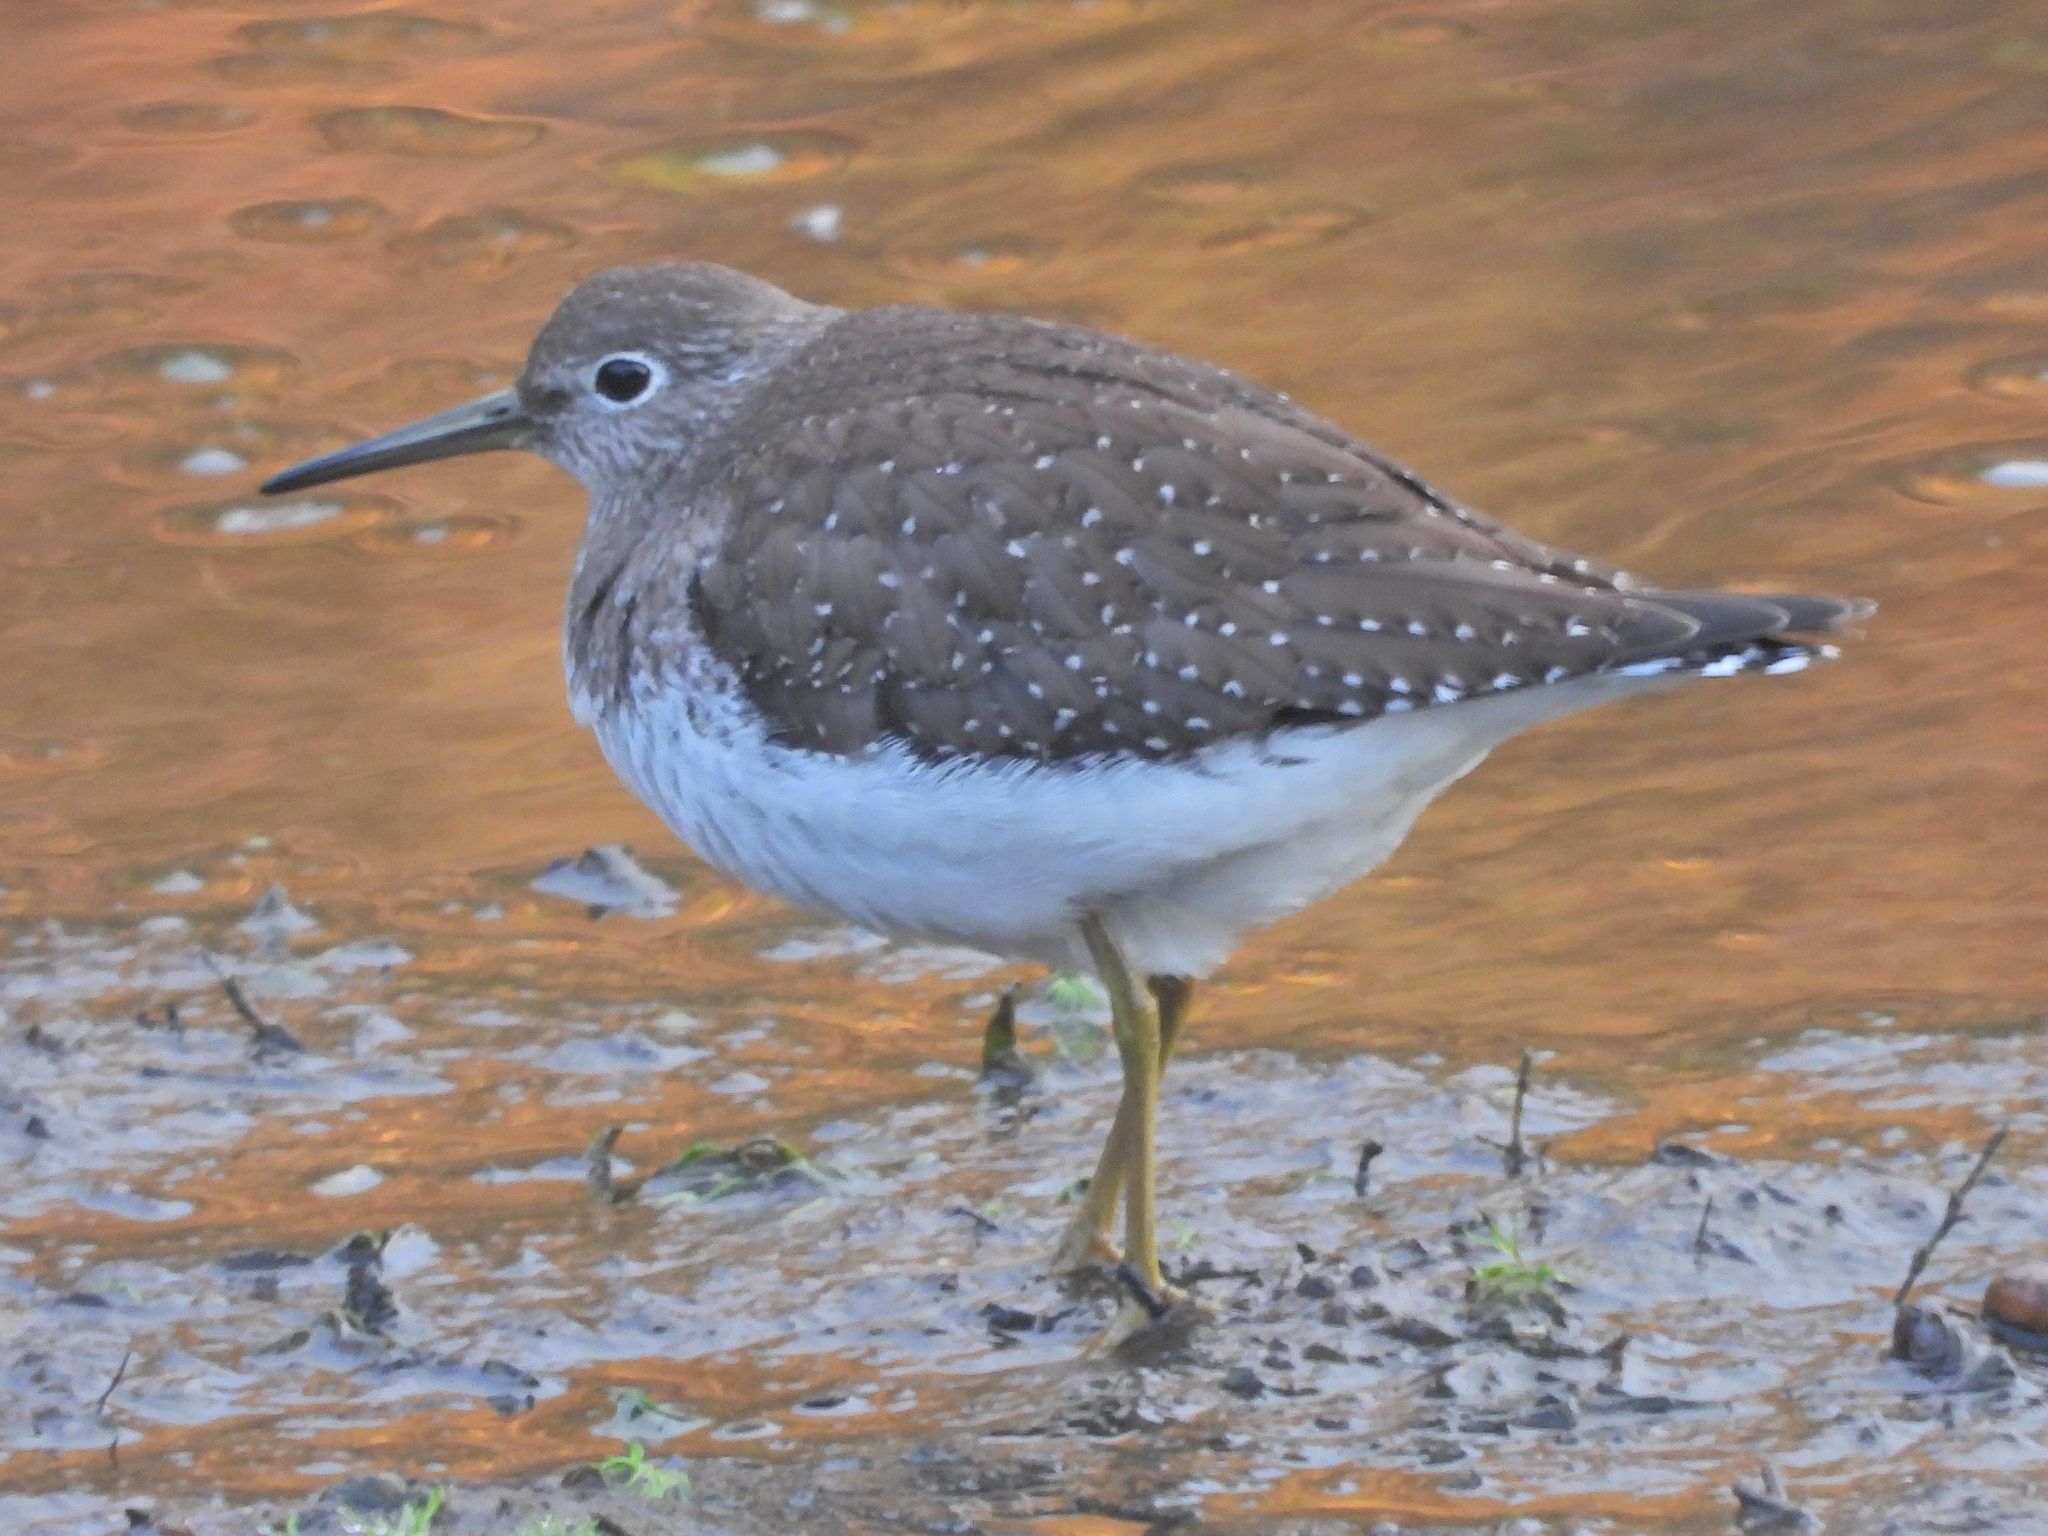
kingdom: Animalia
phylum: Chordata
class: Aves
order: Charadriiformes
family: Scolopacidae
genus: Tringa
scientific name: Tringa solitaria
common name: Solitary sandpiper
